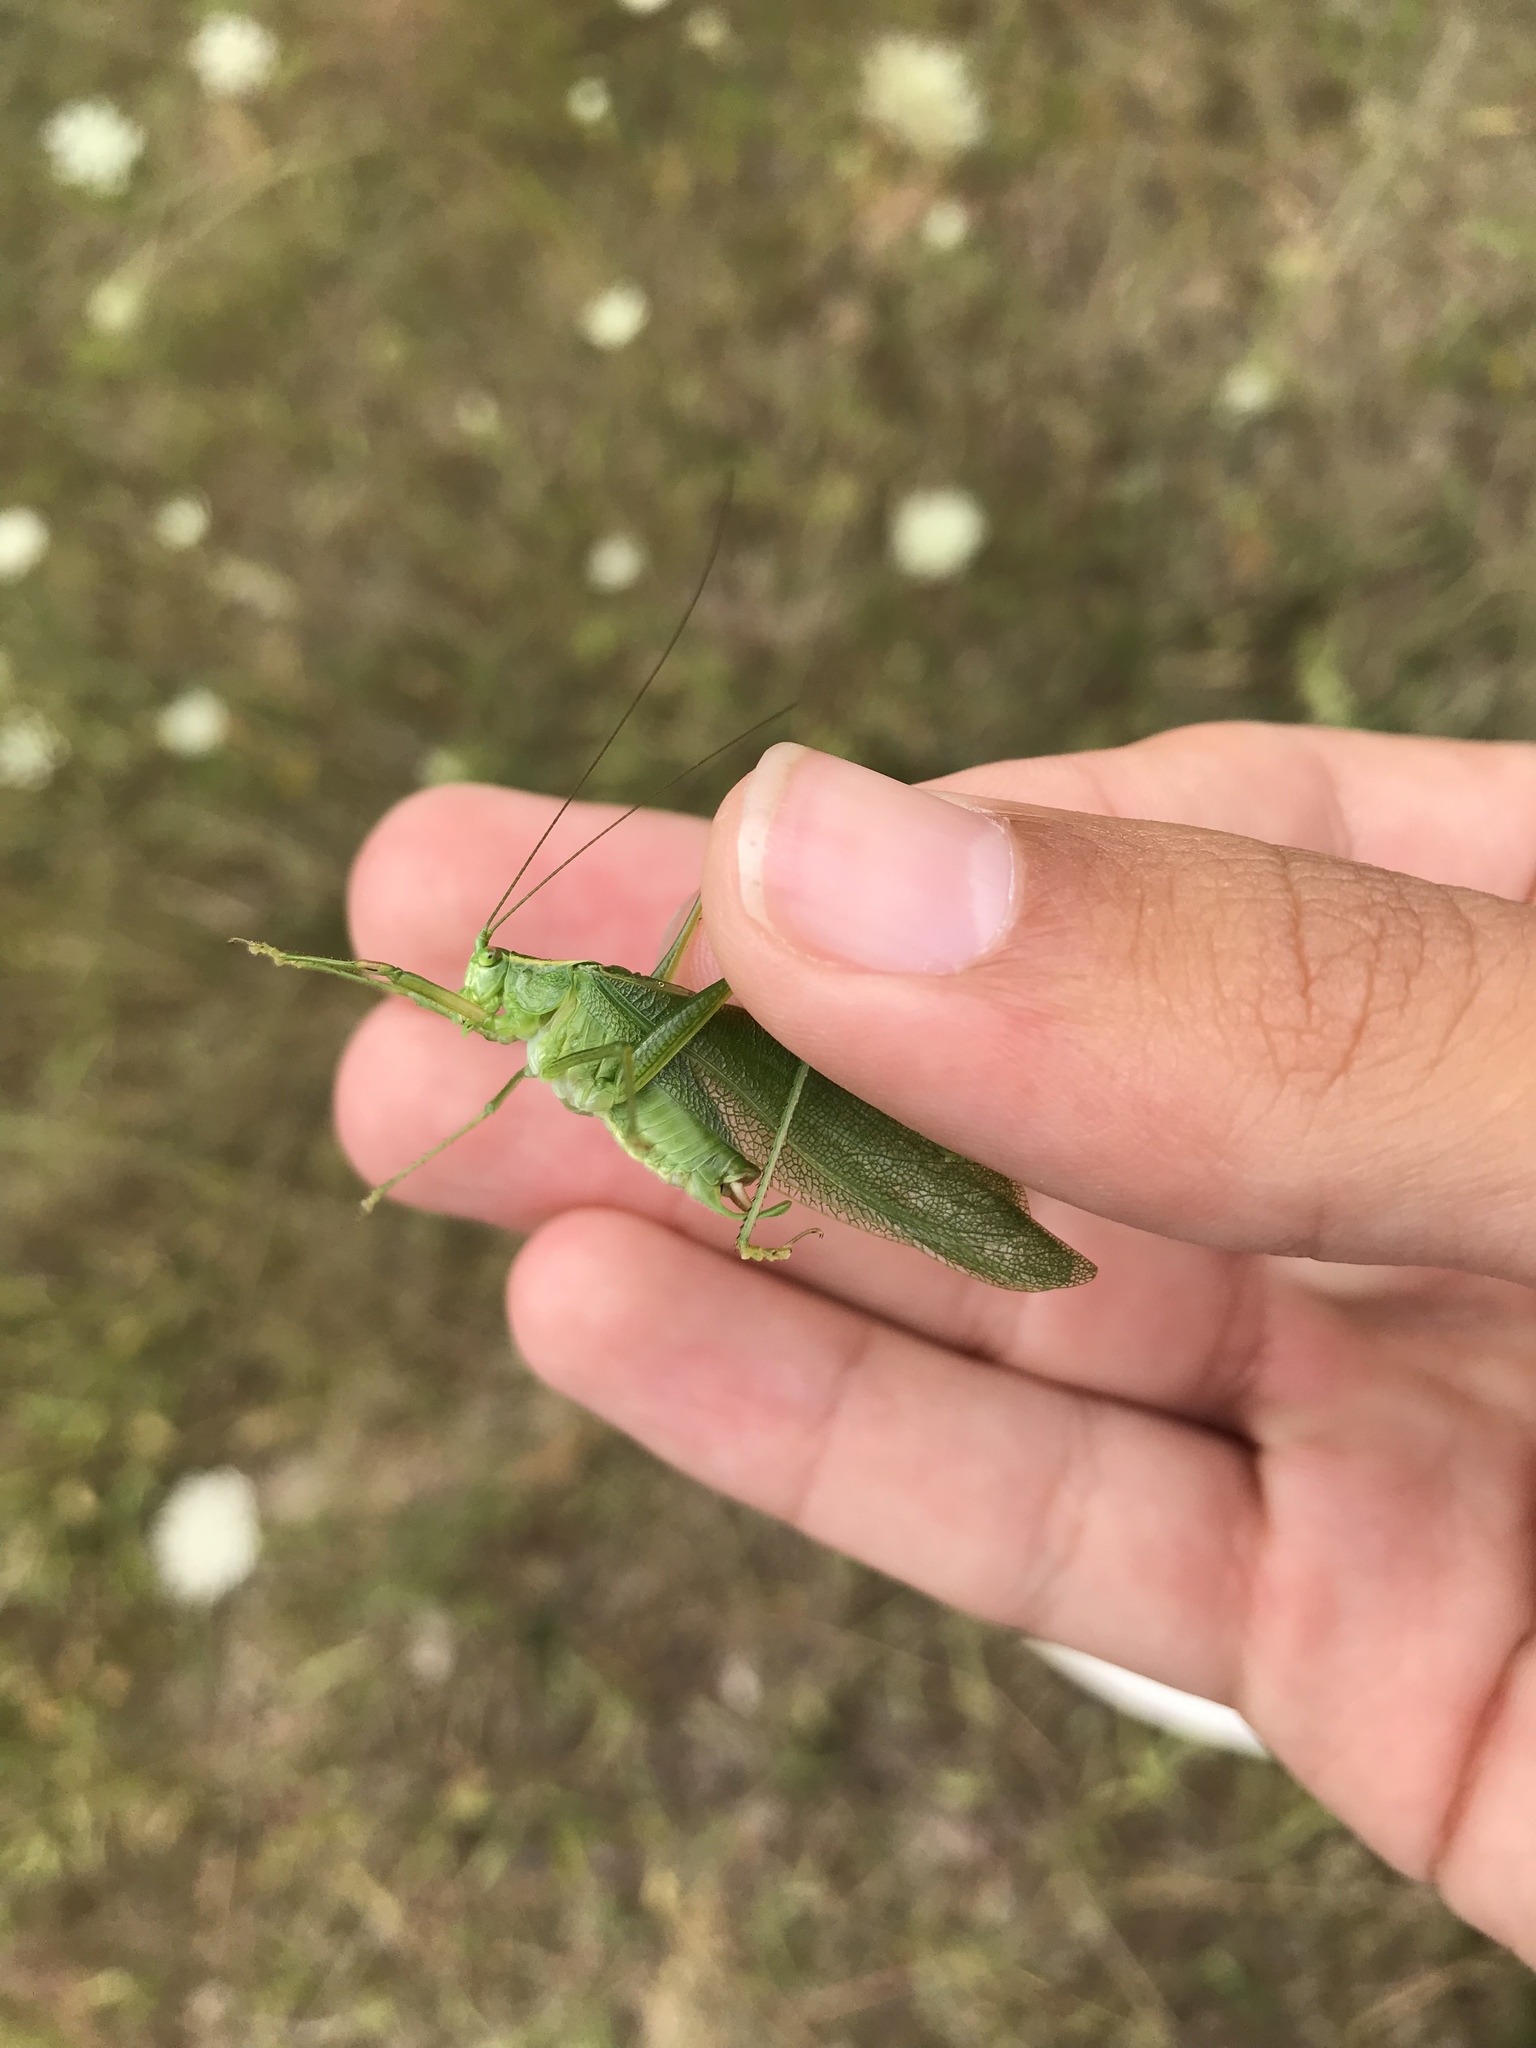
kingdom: Animalia
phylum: Arthropoda
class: Insecta
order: Orthoptera
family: Tettigoniidae
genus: Scudderia
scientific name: Scudderia septentrionalis
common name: Northern bush-katydid
